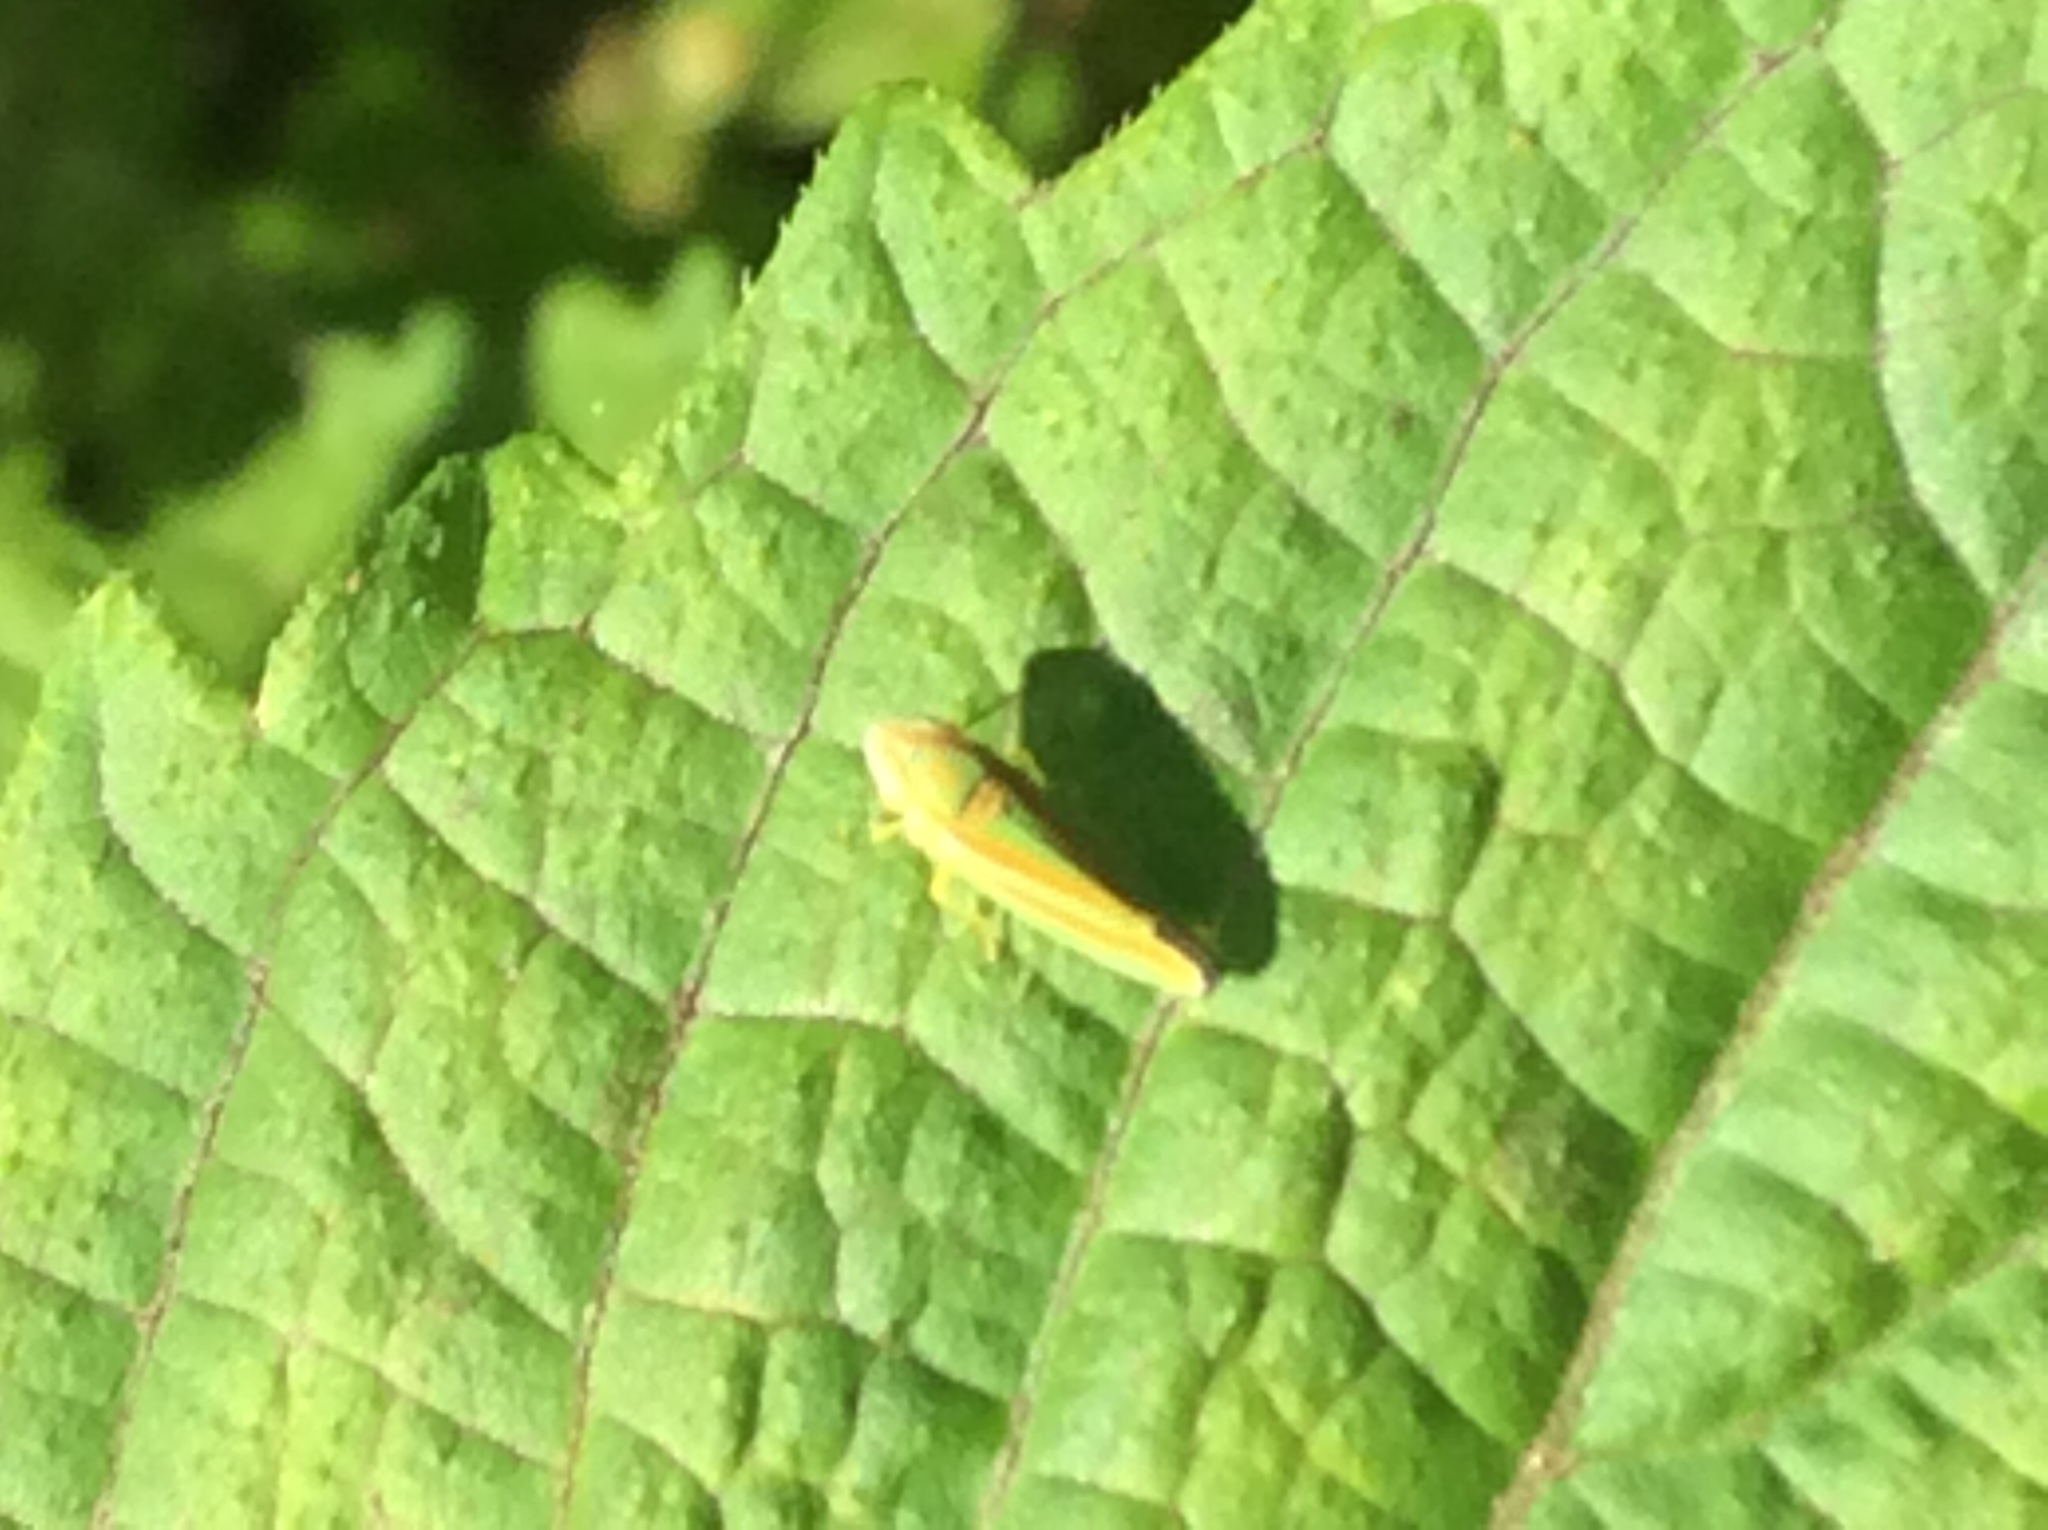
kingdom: Animalia
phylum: Arthropoda
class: Insecta
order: Hemiptera
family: Cicadellidae
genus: Graphocephala
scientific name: Graphocephala versuta
